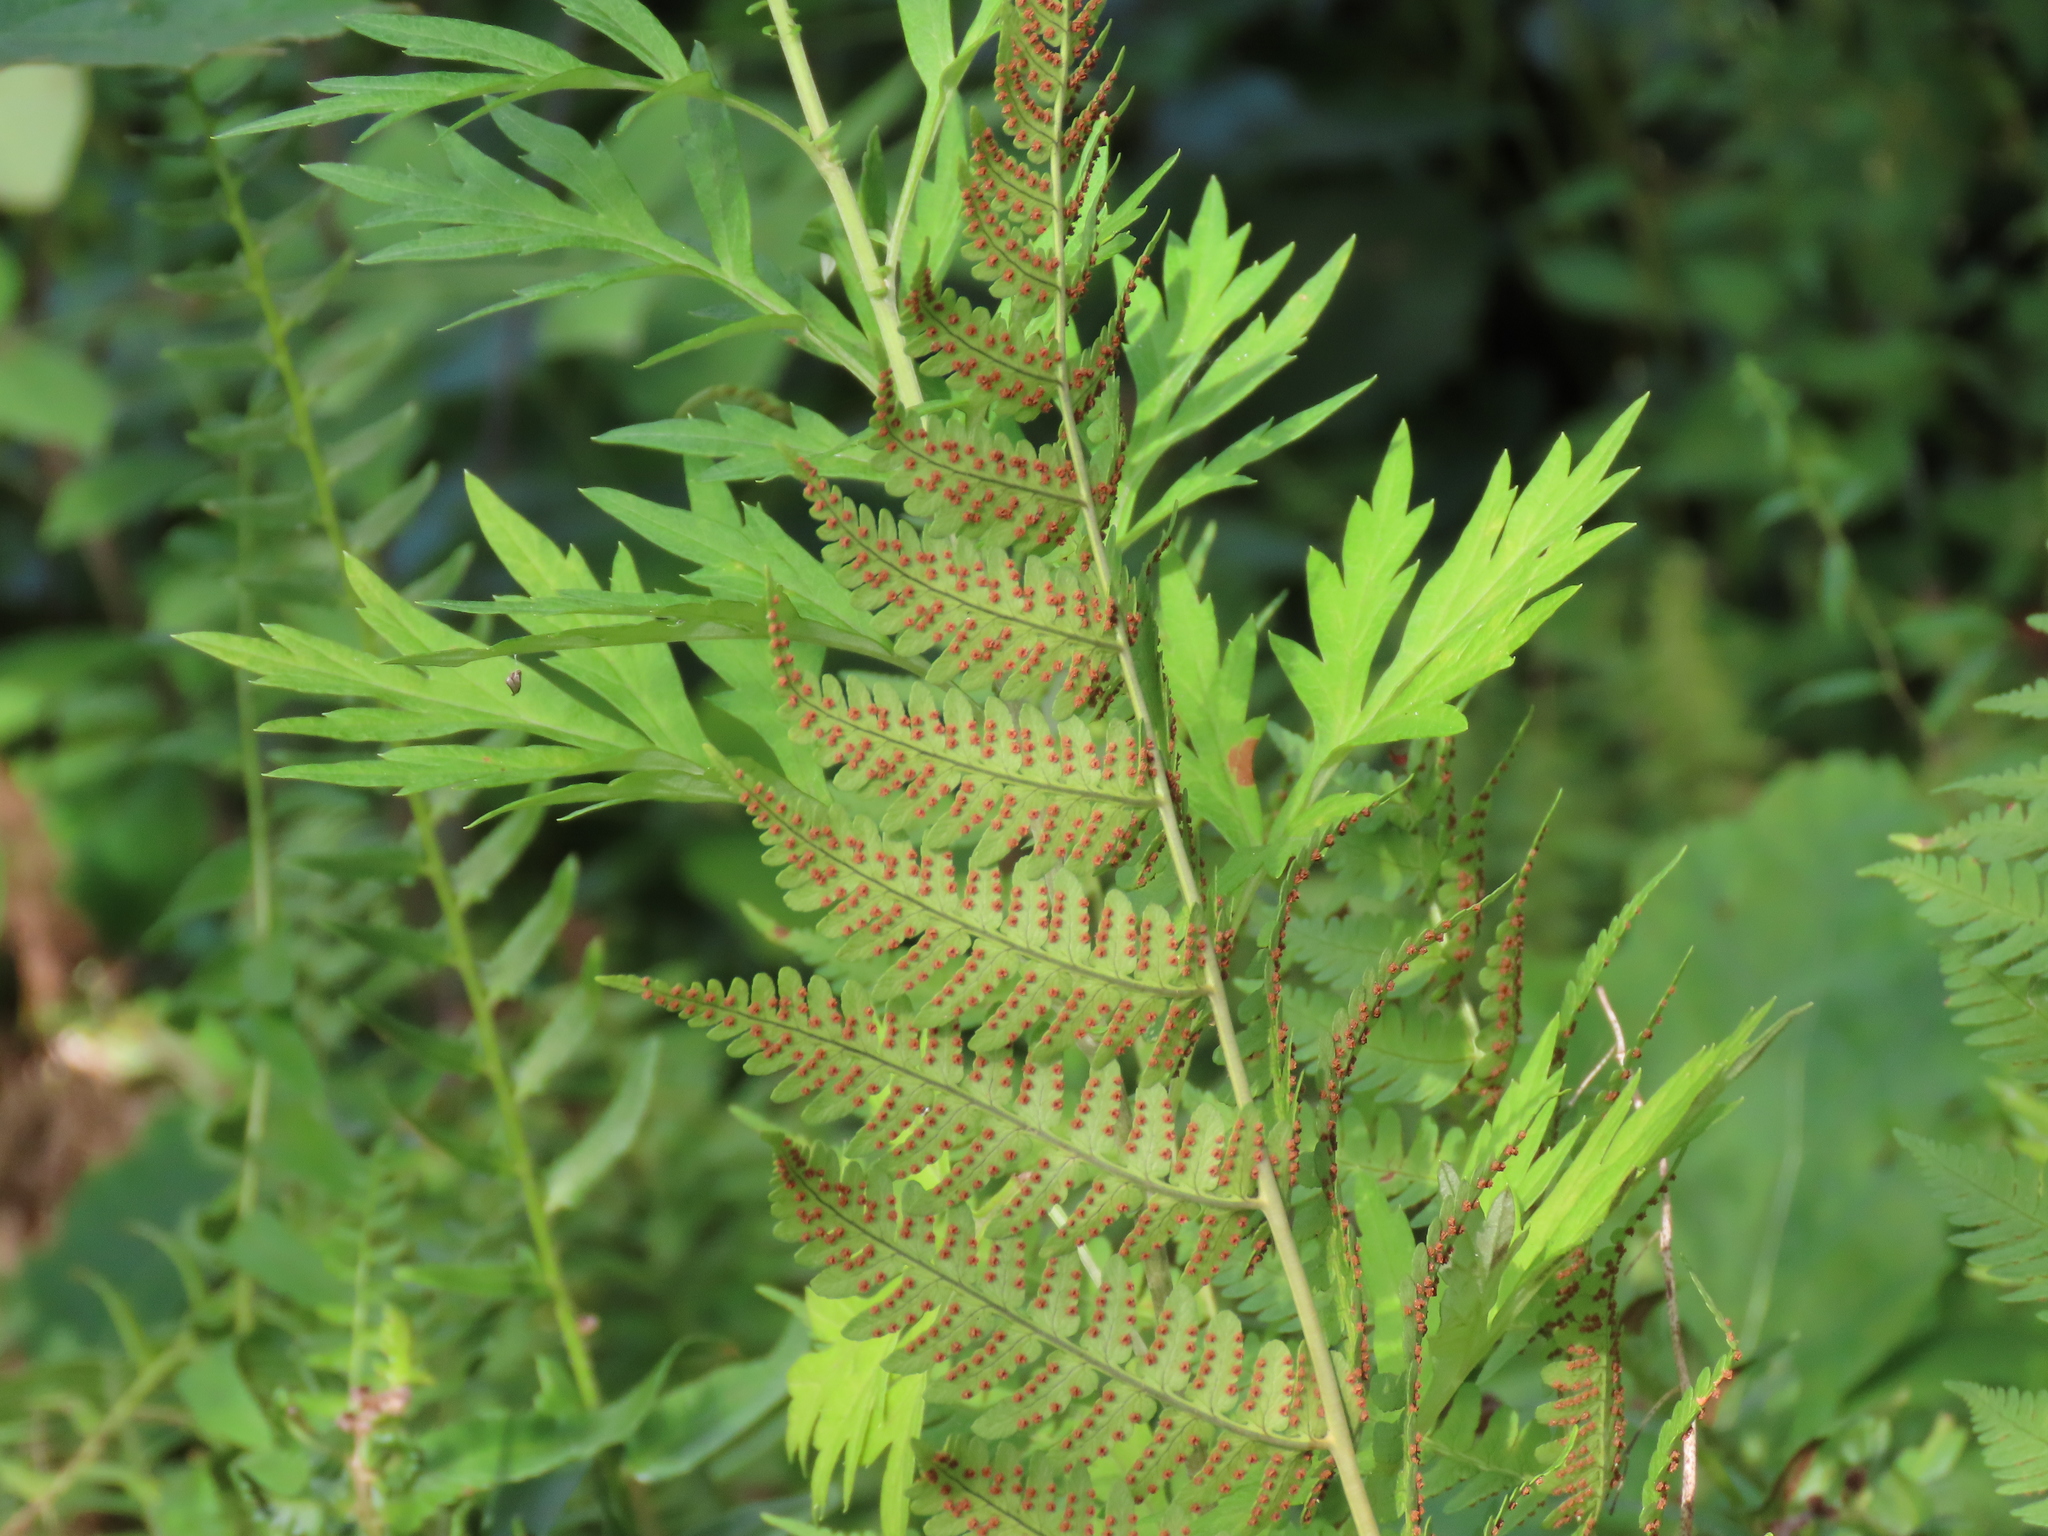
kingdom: Plantae
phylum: Tracheophyta
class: Polypodiopsida
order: Polypodiales
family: Dryopteridaceae
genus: Dryopteris
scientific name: Dryopteris marginalis
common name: Marginal wood fern
